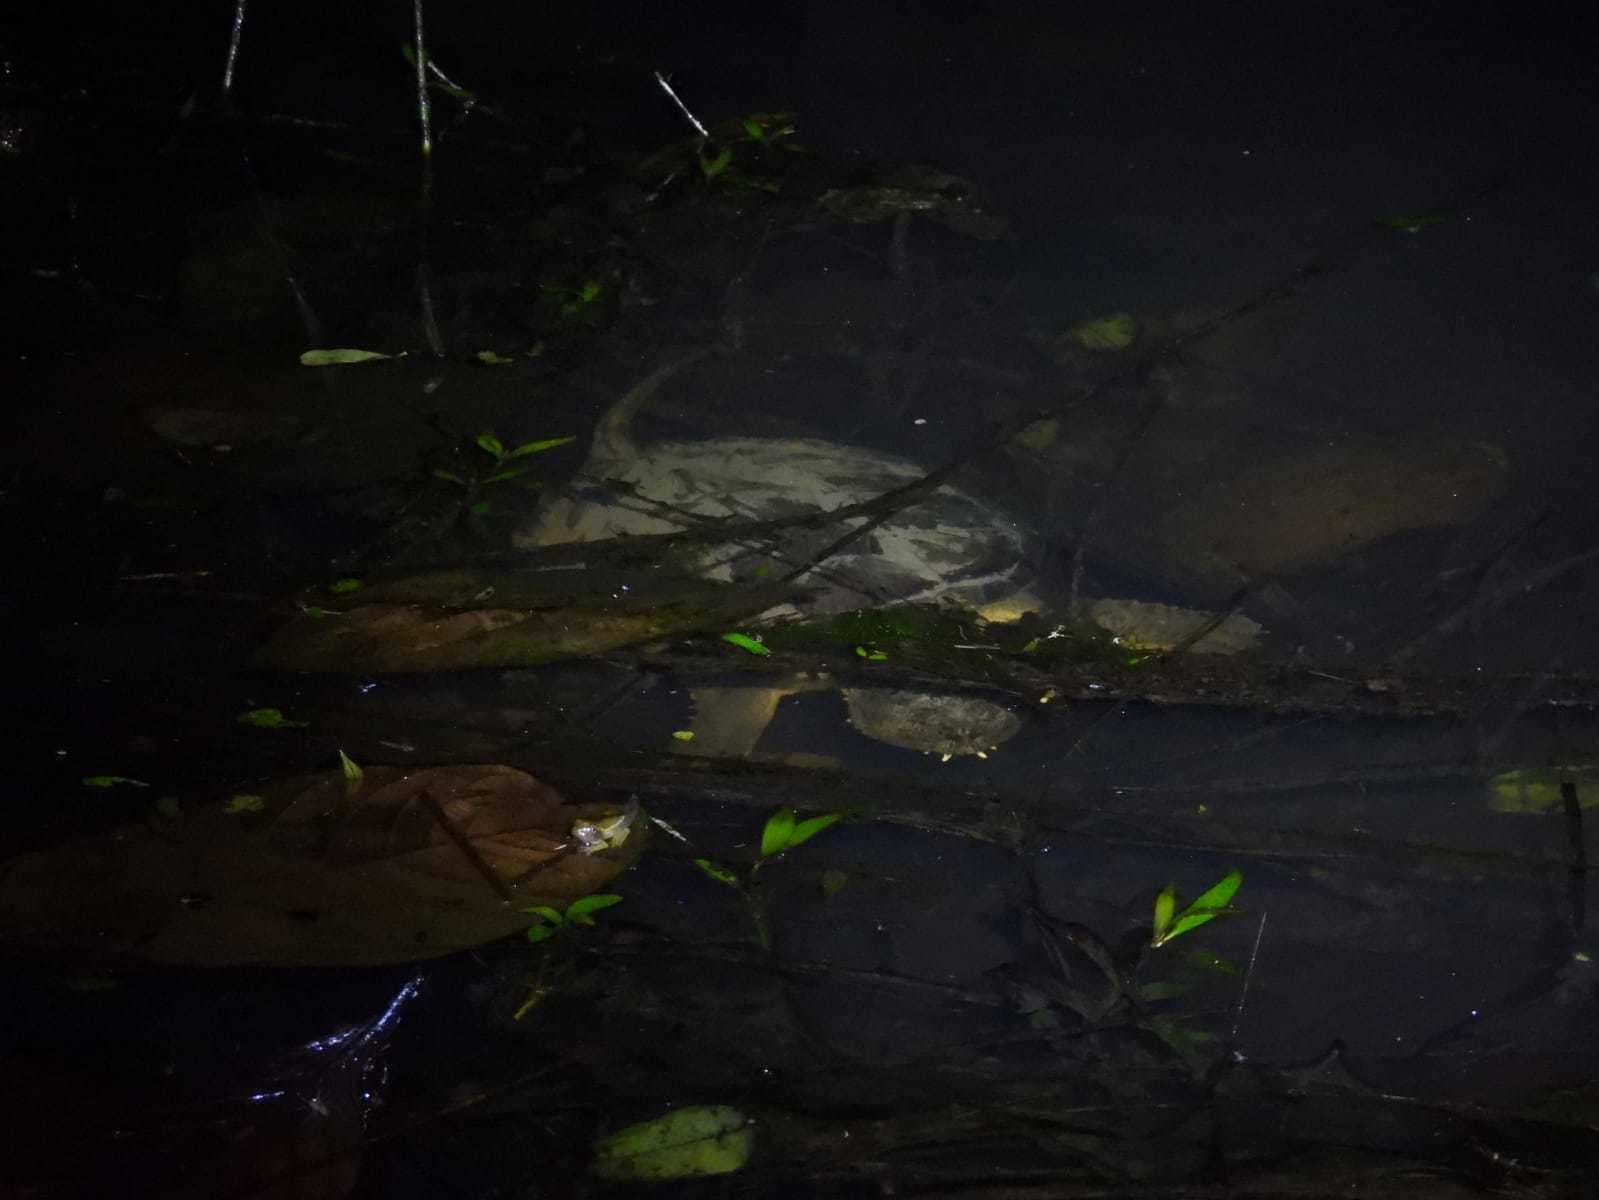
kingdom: Animalia
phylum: Chordata
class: Testudines
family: Chelydridae
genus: Chelydra
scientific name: Chelydra acutirostris
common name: South american snapping turtle
